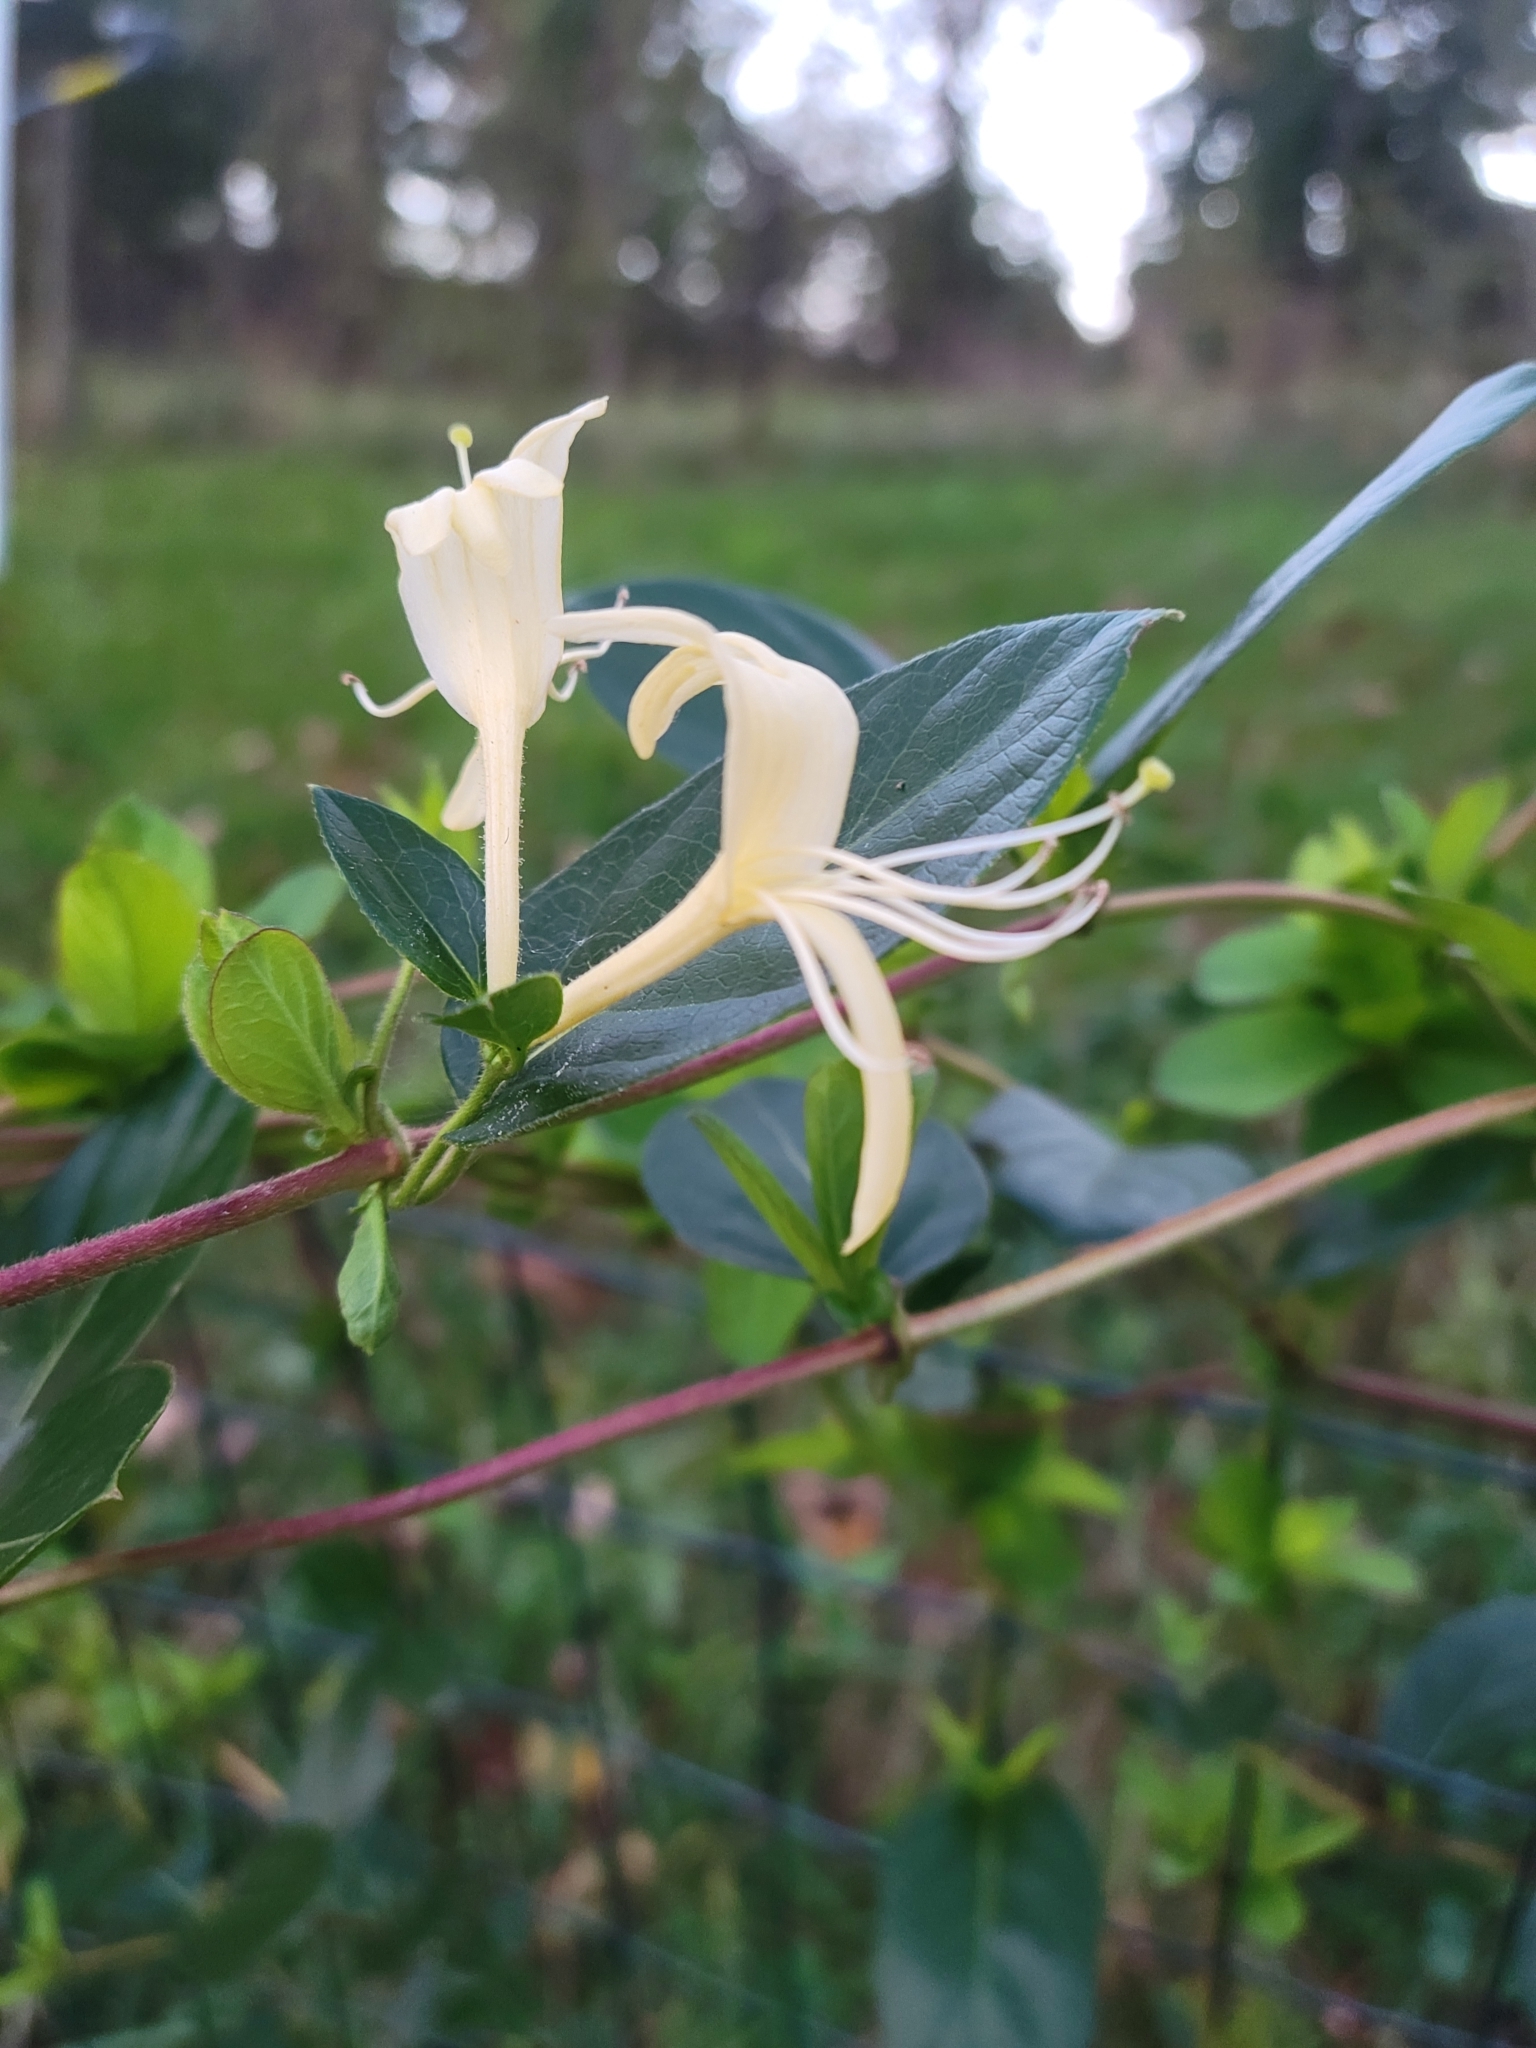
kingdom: Plantae
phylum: Tracheophyta
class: Magnoliopsida
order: Dipsacales
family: Caprifoliaceae
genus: Lonicera
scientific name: Lonicera japonica
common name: Japanese honeysuckle
